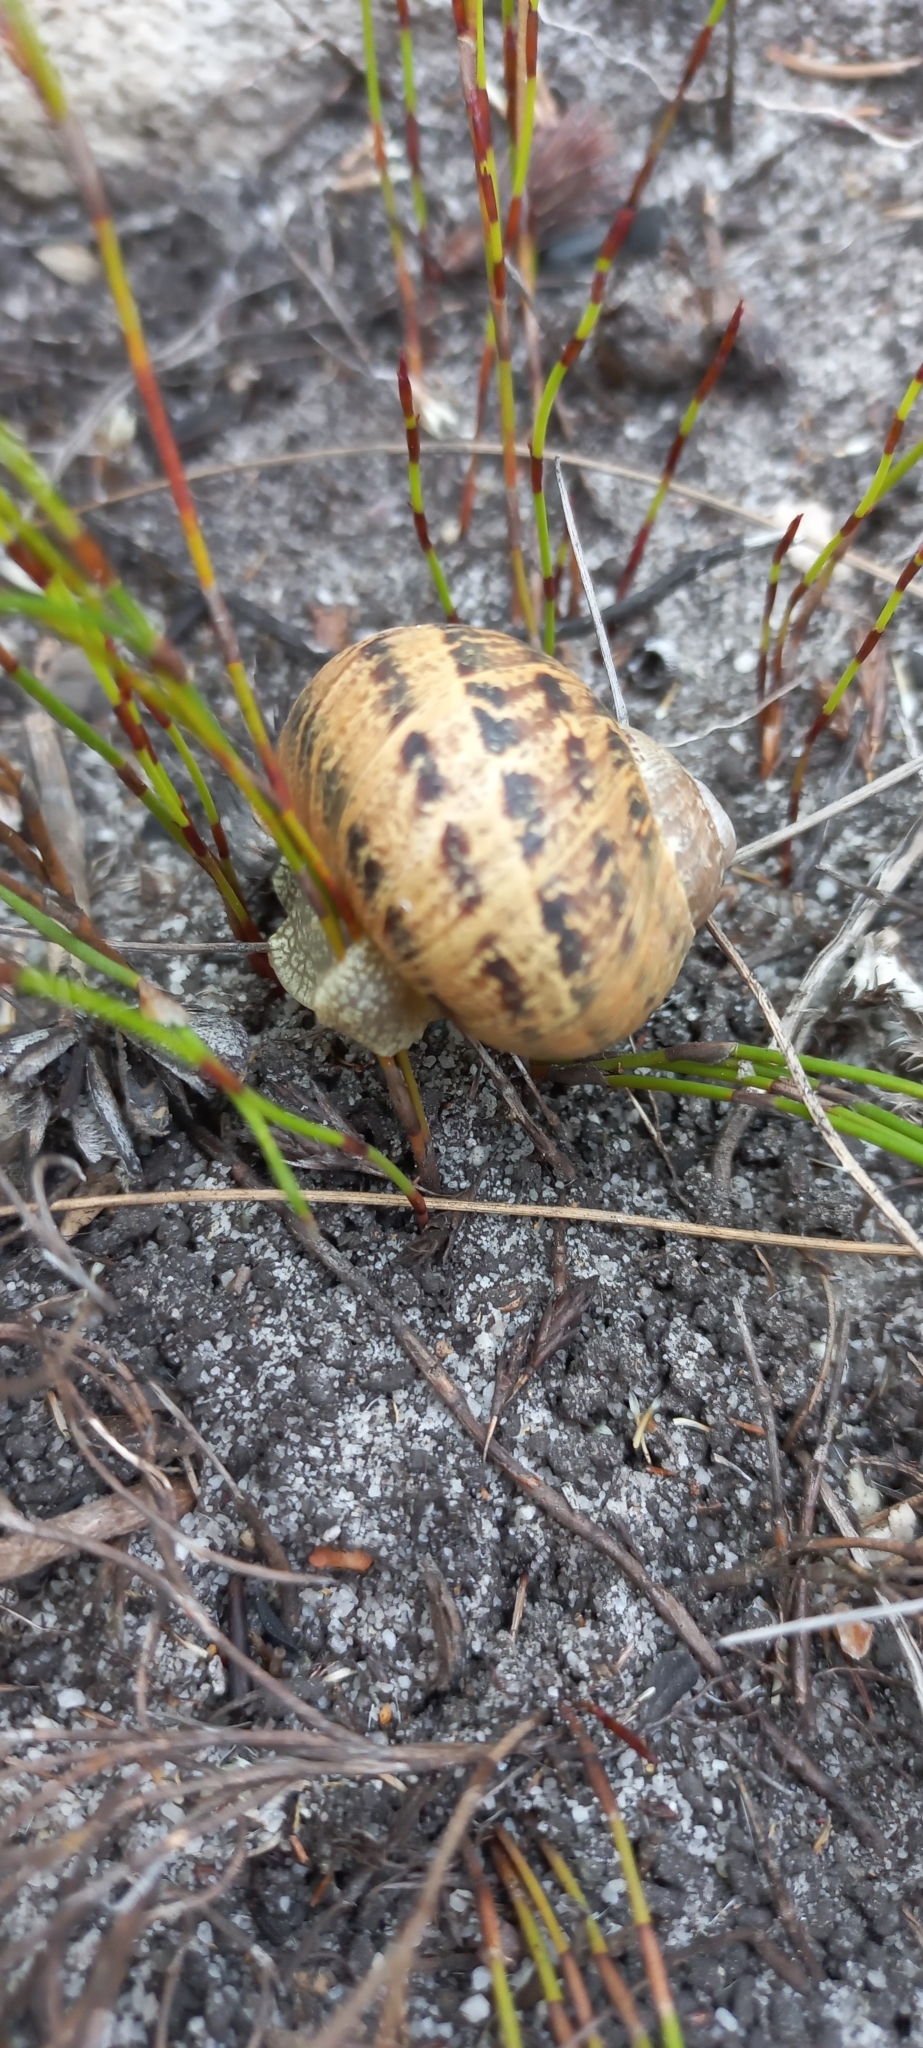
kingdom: Animalia
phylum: Mollusca
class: Gastropoda
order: Stylommatophora
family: Helicidae
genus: Cornu
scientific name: Cornu aspersum
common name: Brown garden snail
